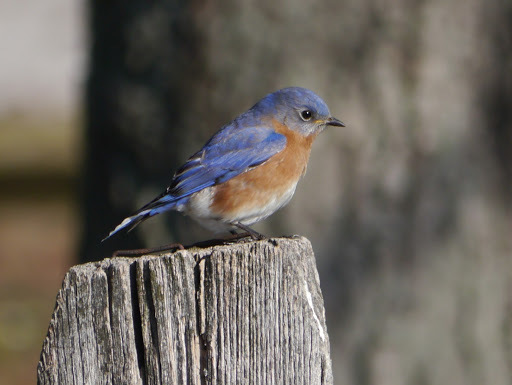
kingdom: Animalia
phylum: Chordata
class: Aves
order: Passeriformes
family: Turdidae
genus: Sialia
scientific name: Sialia sialis
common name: Eastern bluebird
